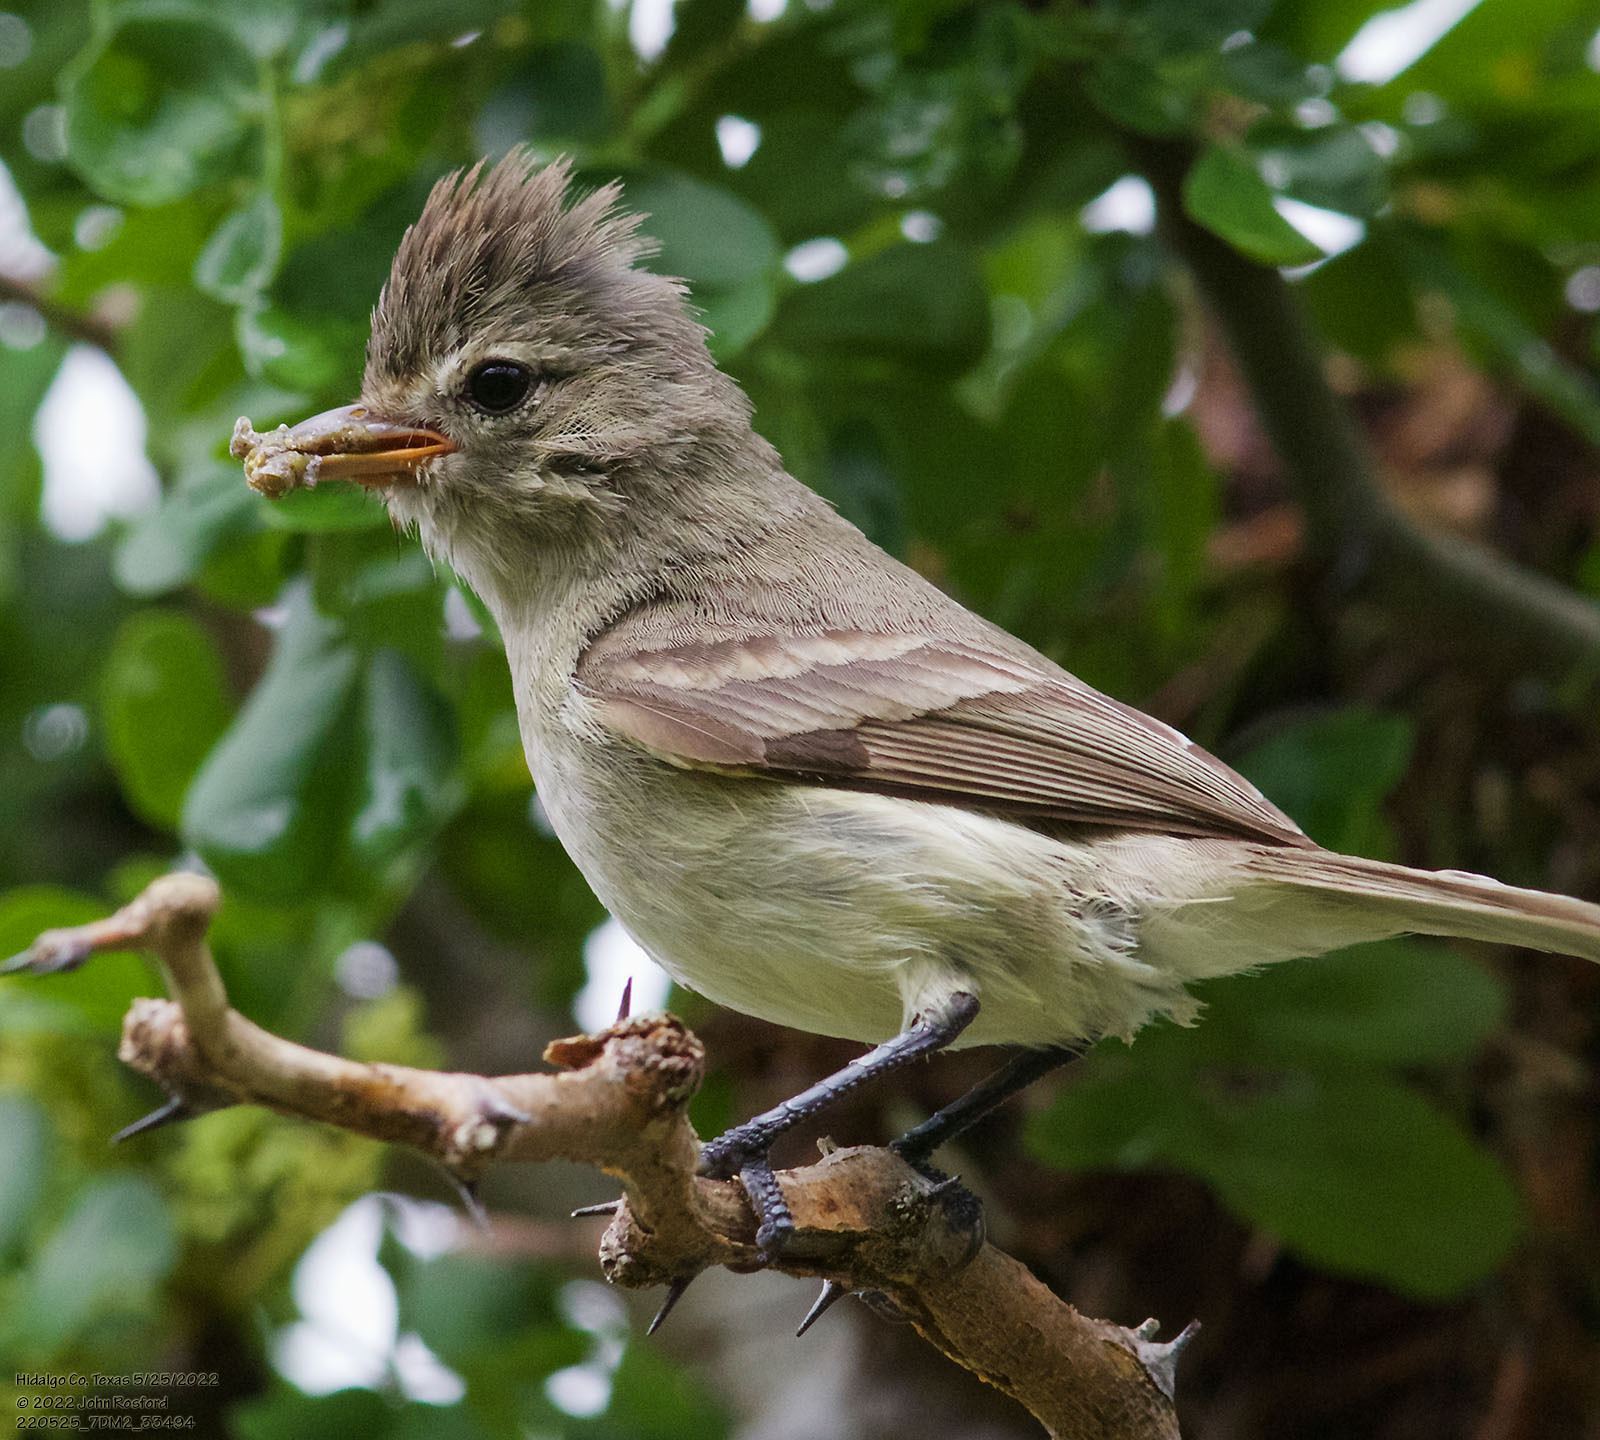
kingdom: Animalia
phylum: Chordata
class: Aves
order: Passeriformes
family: Tyrannidae
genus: Camptostoma
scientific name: Camptostoma imberbe
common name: Northern beardless-tyrannulet
